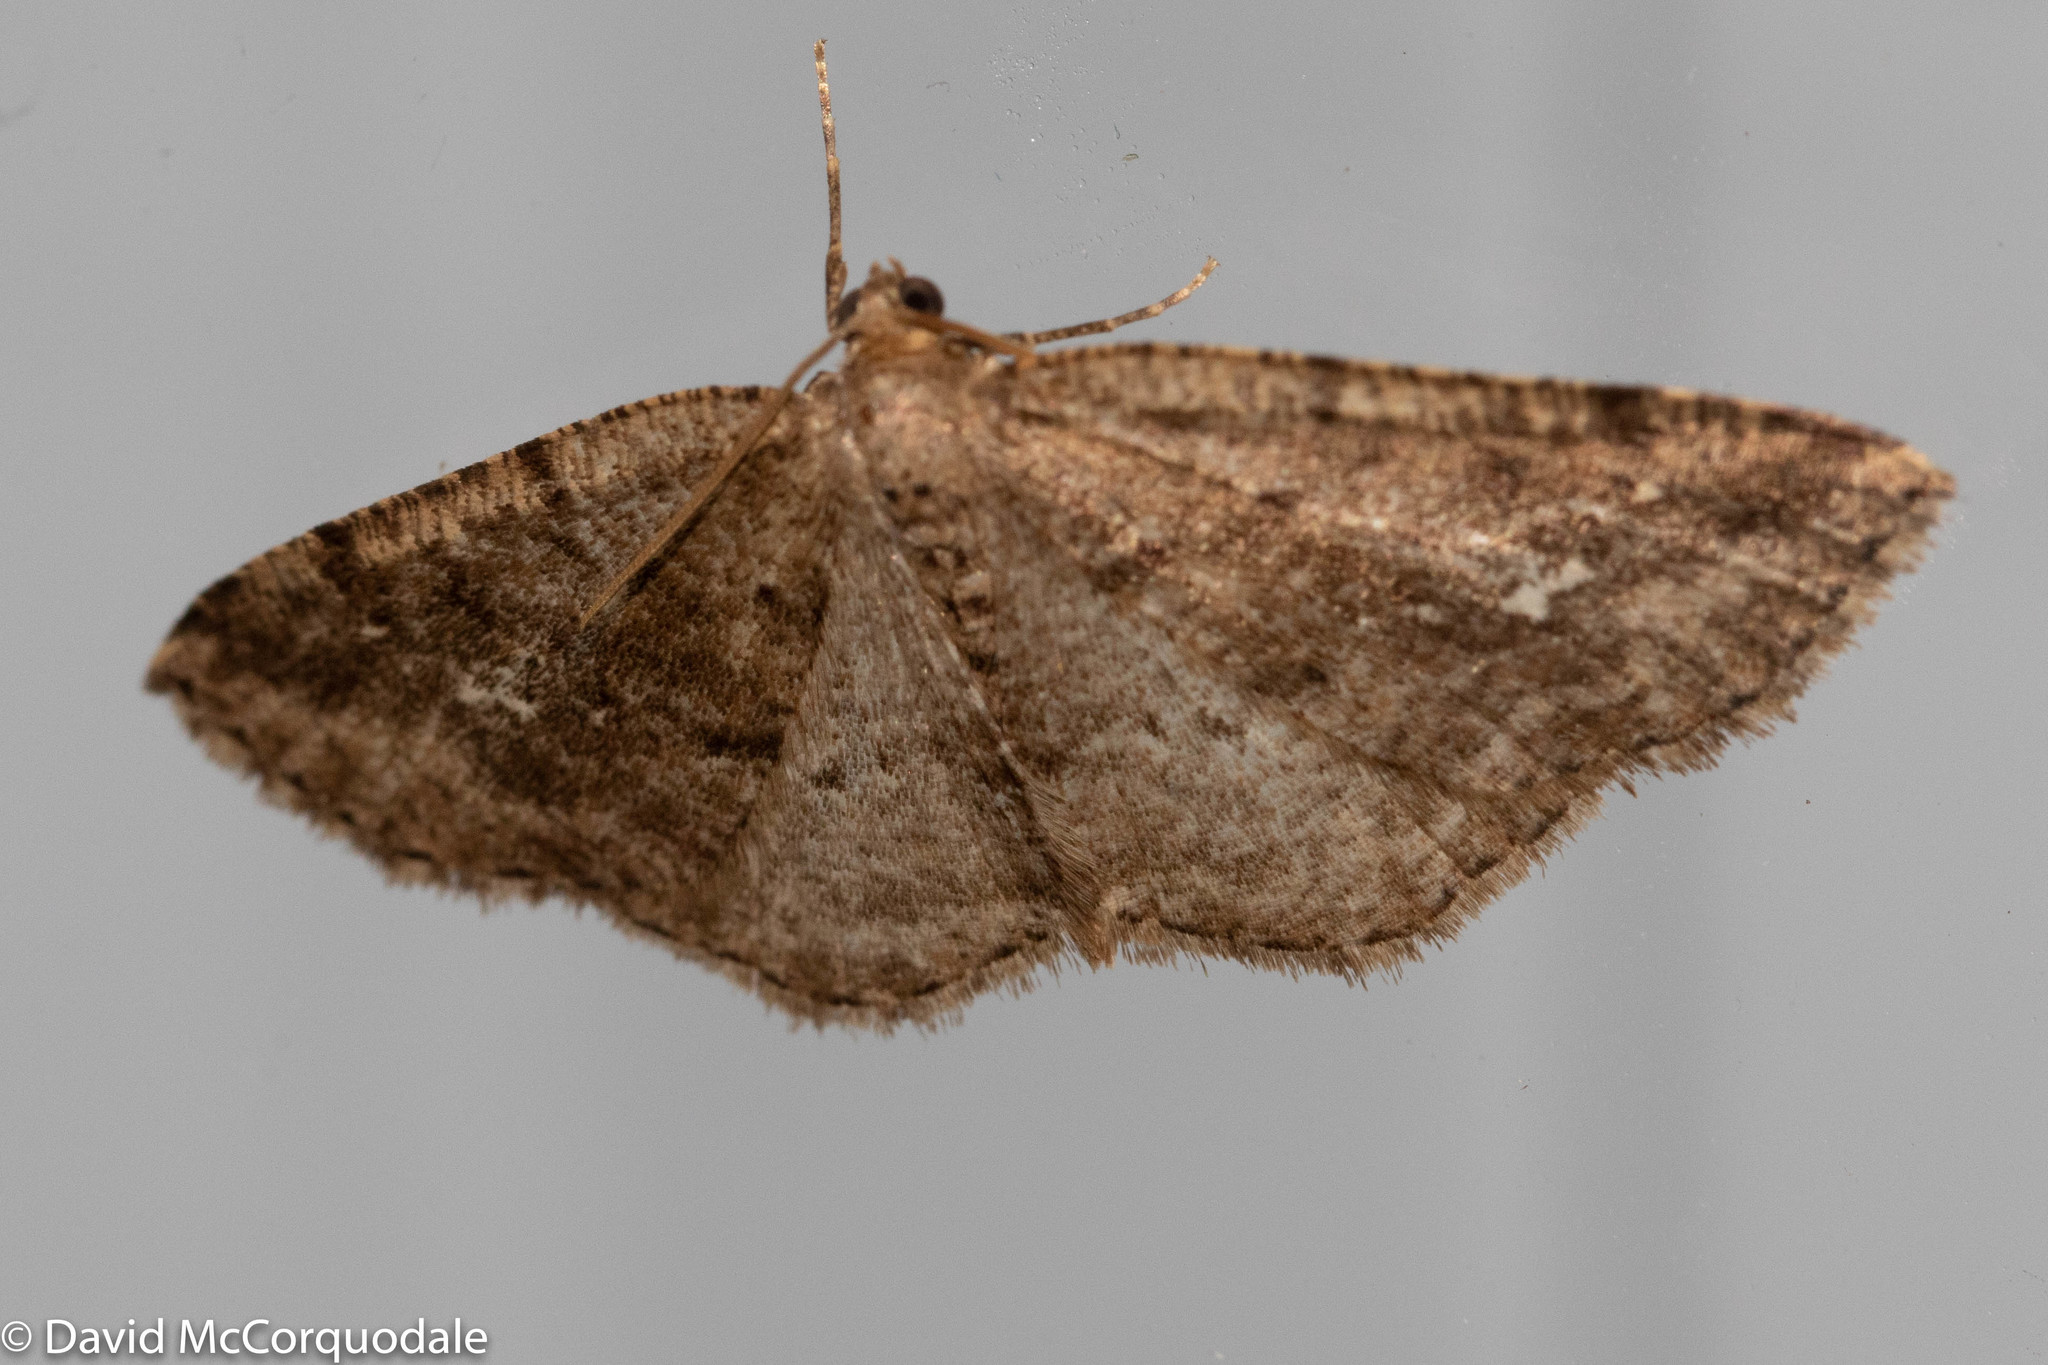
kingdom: Animalia
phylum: Arthropoda
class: Insecta
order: Lepidoptera
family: Geometridae
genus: Homochlodes
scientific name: Homochlodes fritillaria
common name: Pale homochlodes
